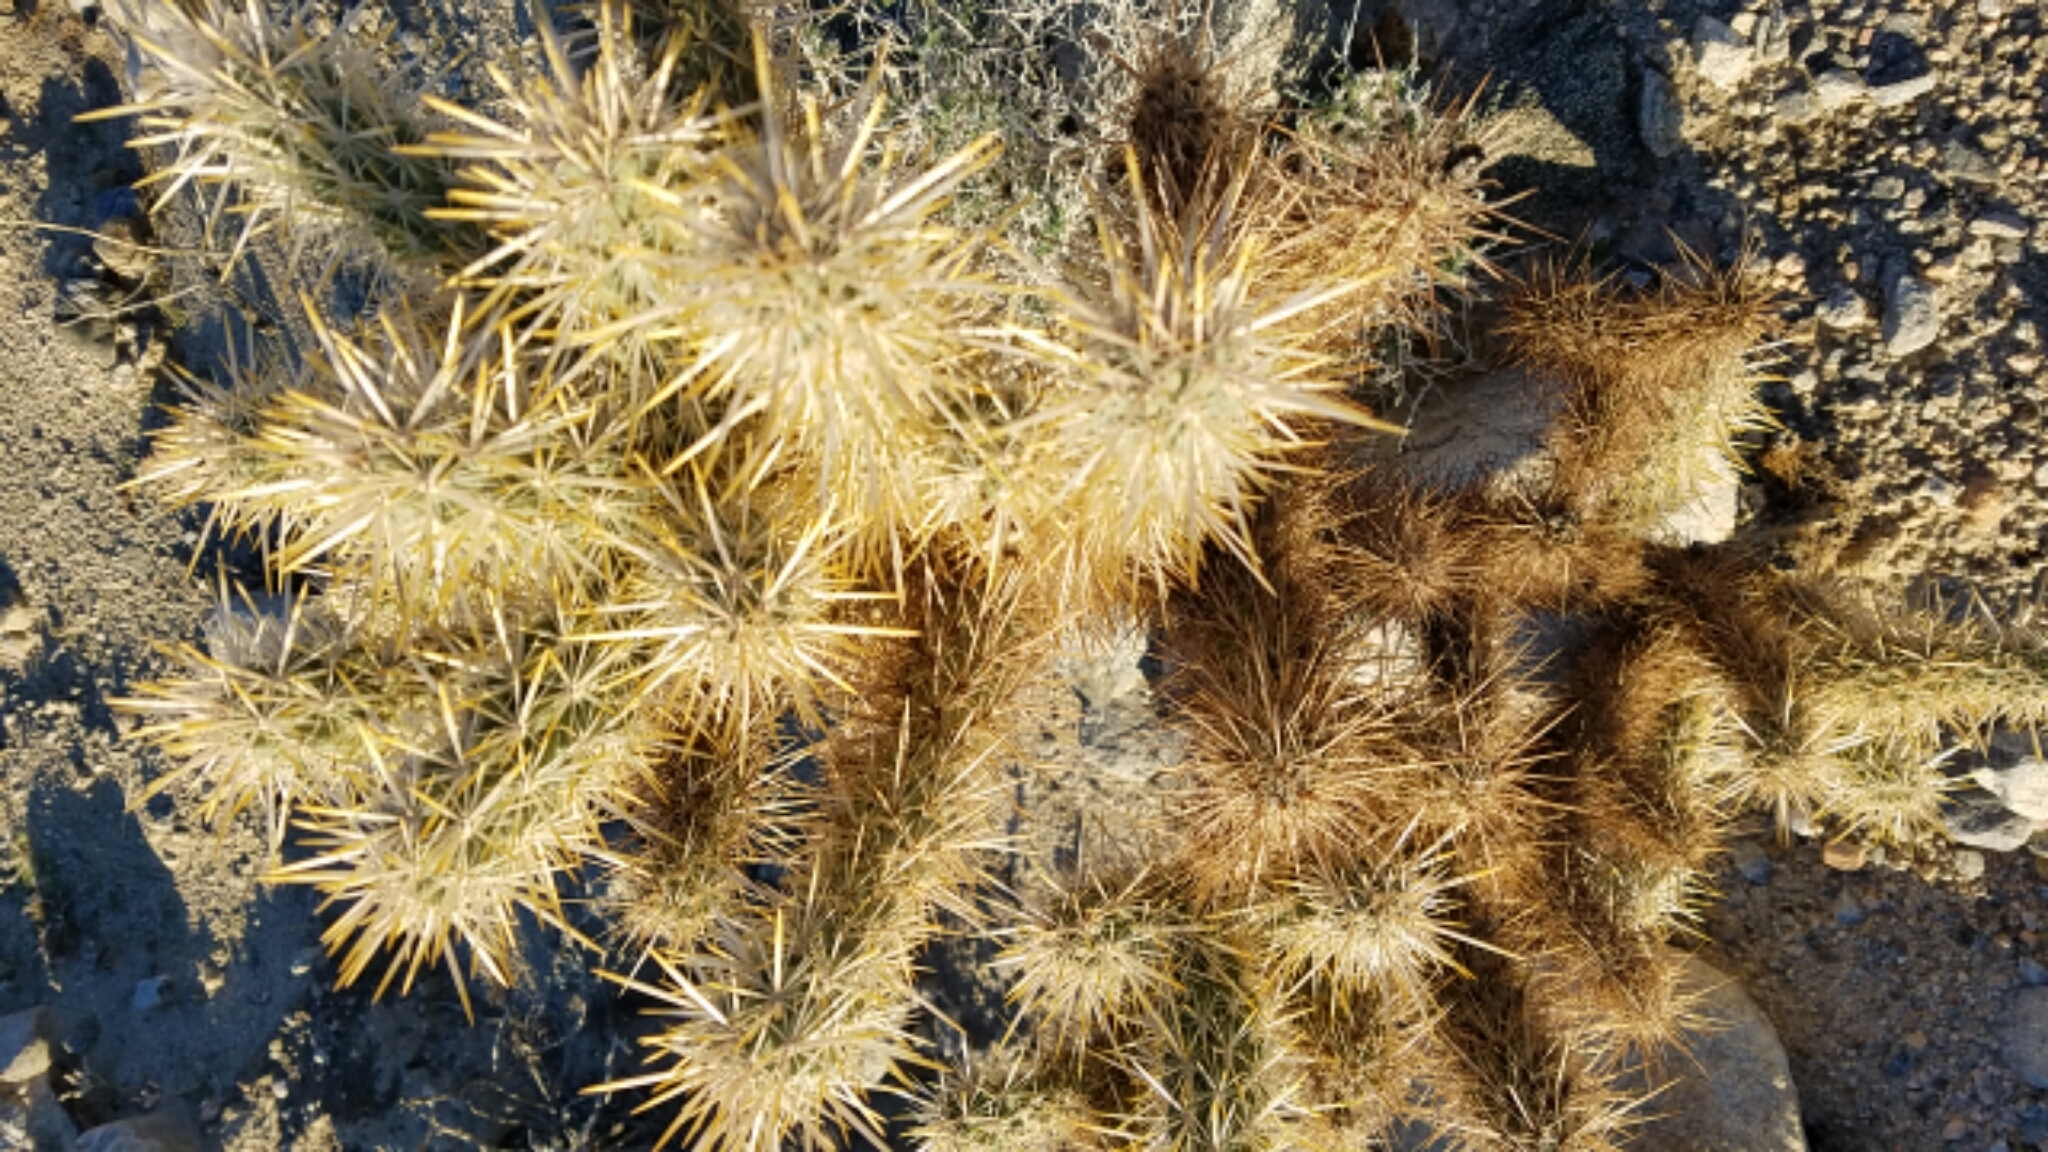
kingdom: Plantae
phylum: Tracheophyta
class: Magnoliopsida
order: Caryophyllales
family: Cactaceae
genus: Cylindropuntia
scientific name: Cylindropuntia echinocarpa
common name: Ground cholla
